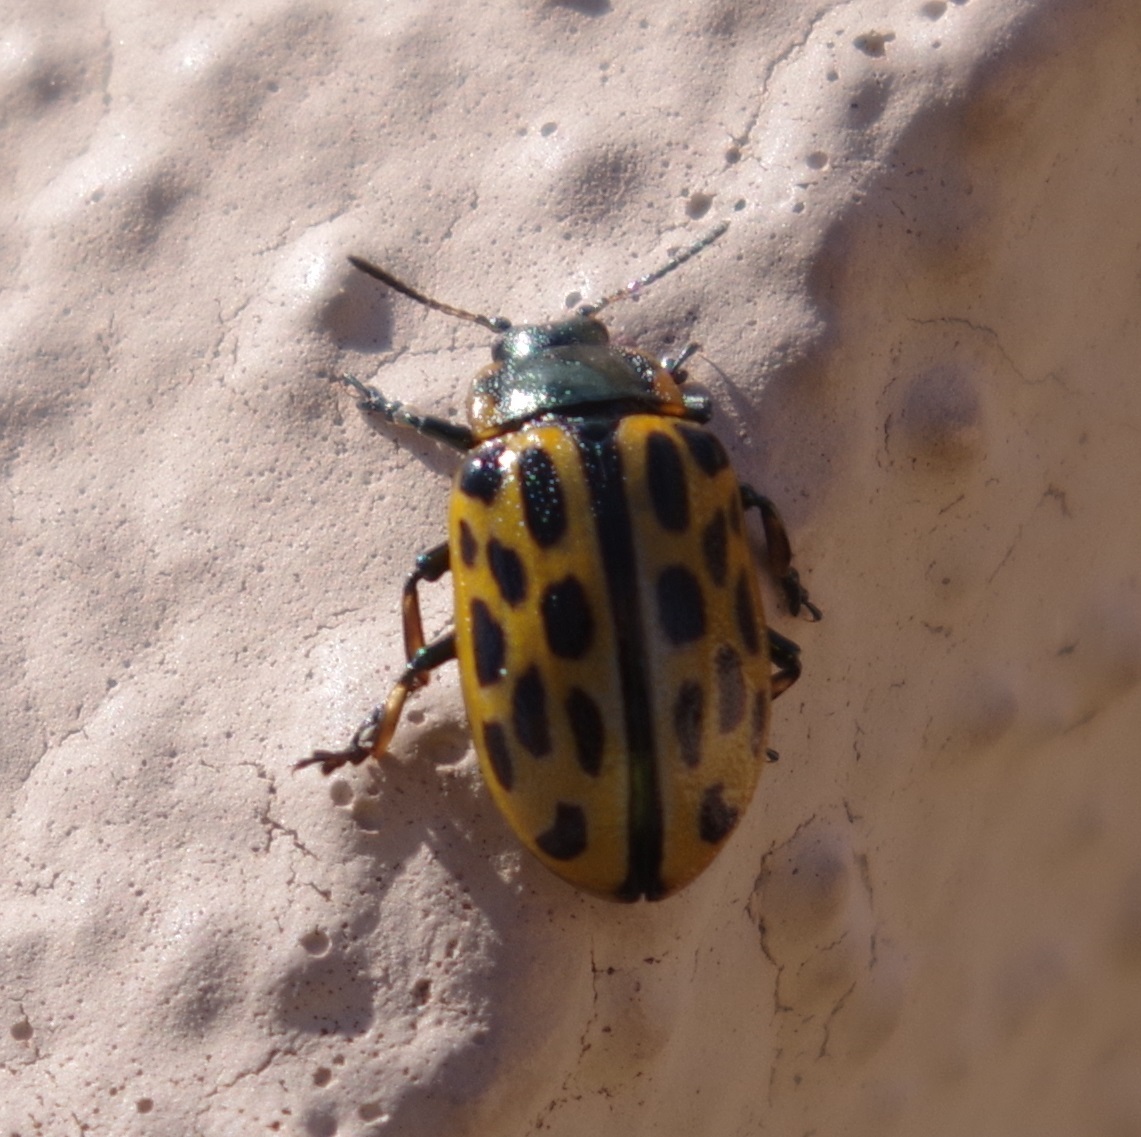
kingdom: Animalia
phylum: Arthropoda
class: Insecta
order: Coleoptera
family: Chrysomelidae
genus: Chrysomela
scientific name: Chrysomela vigintipunctata
